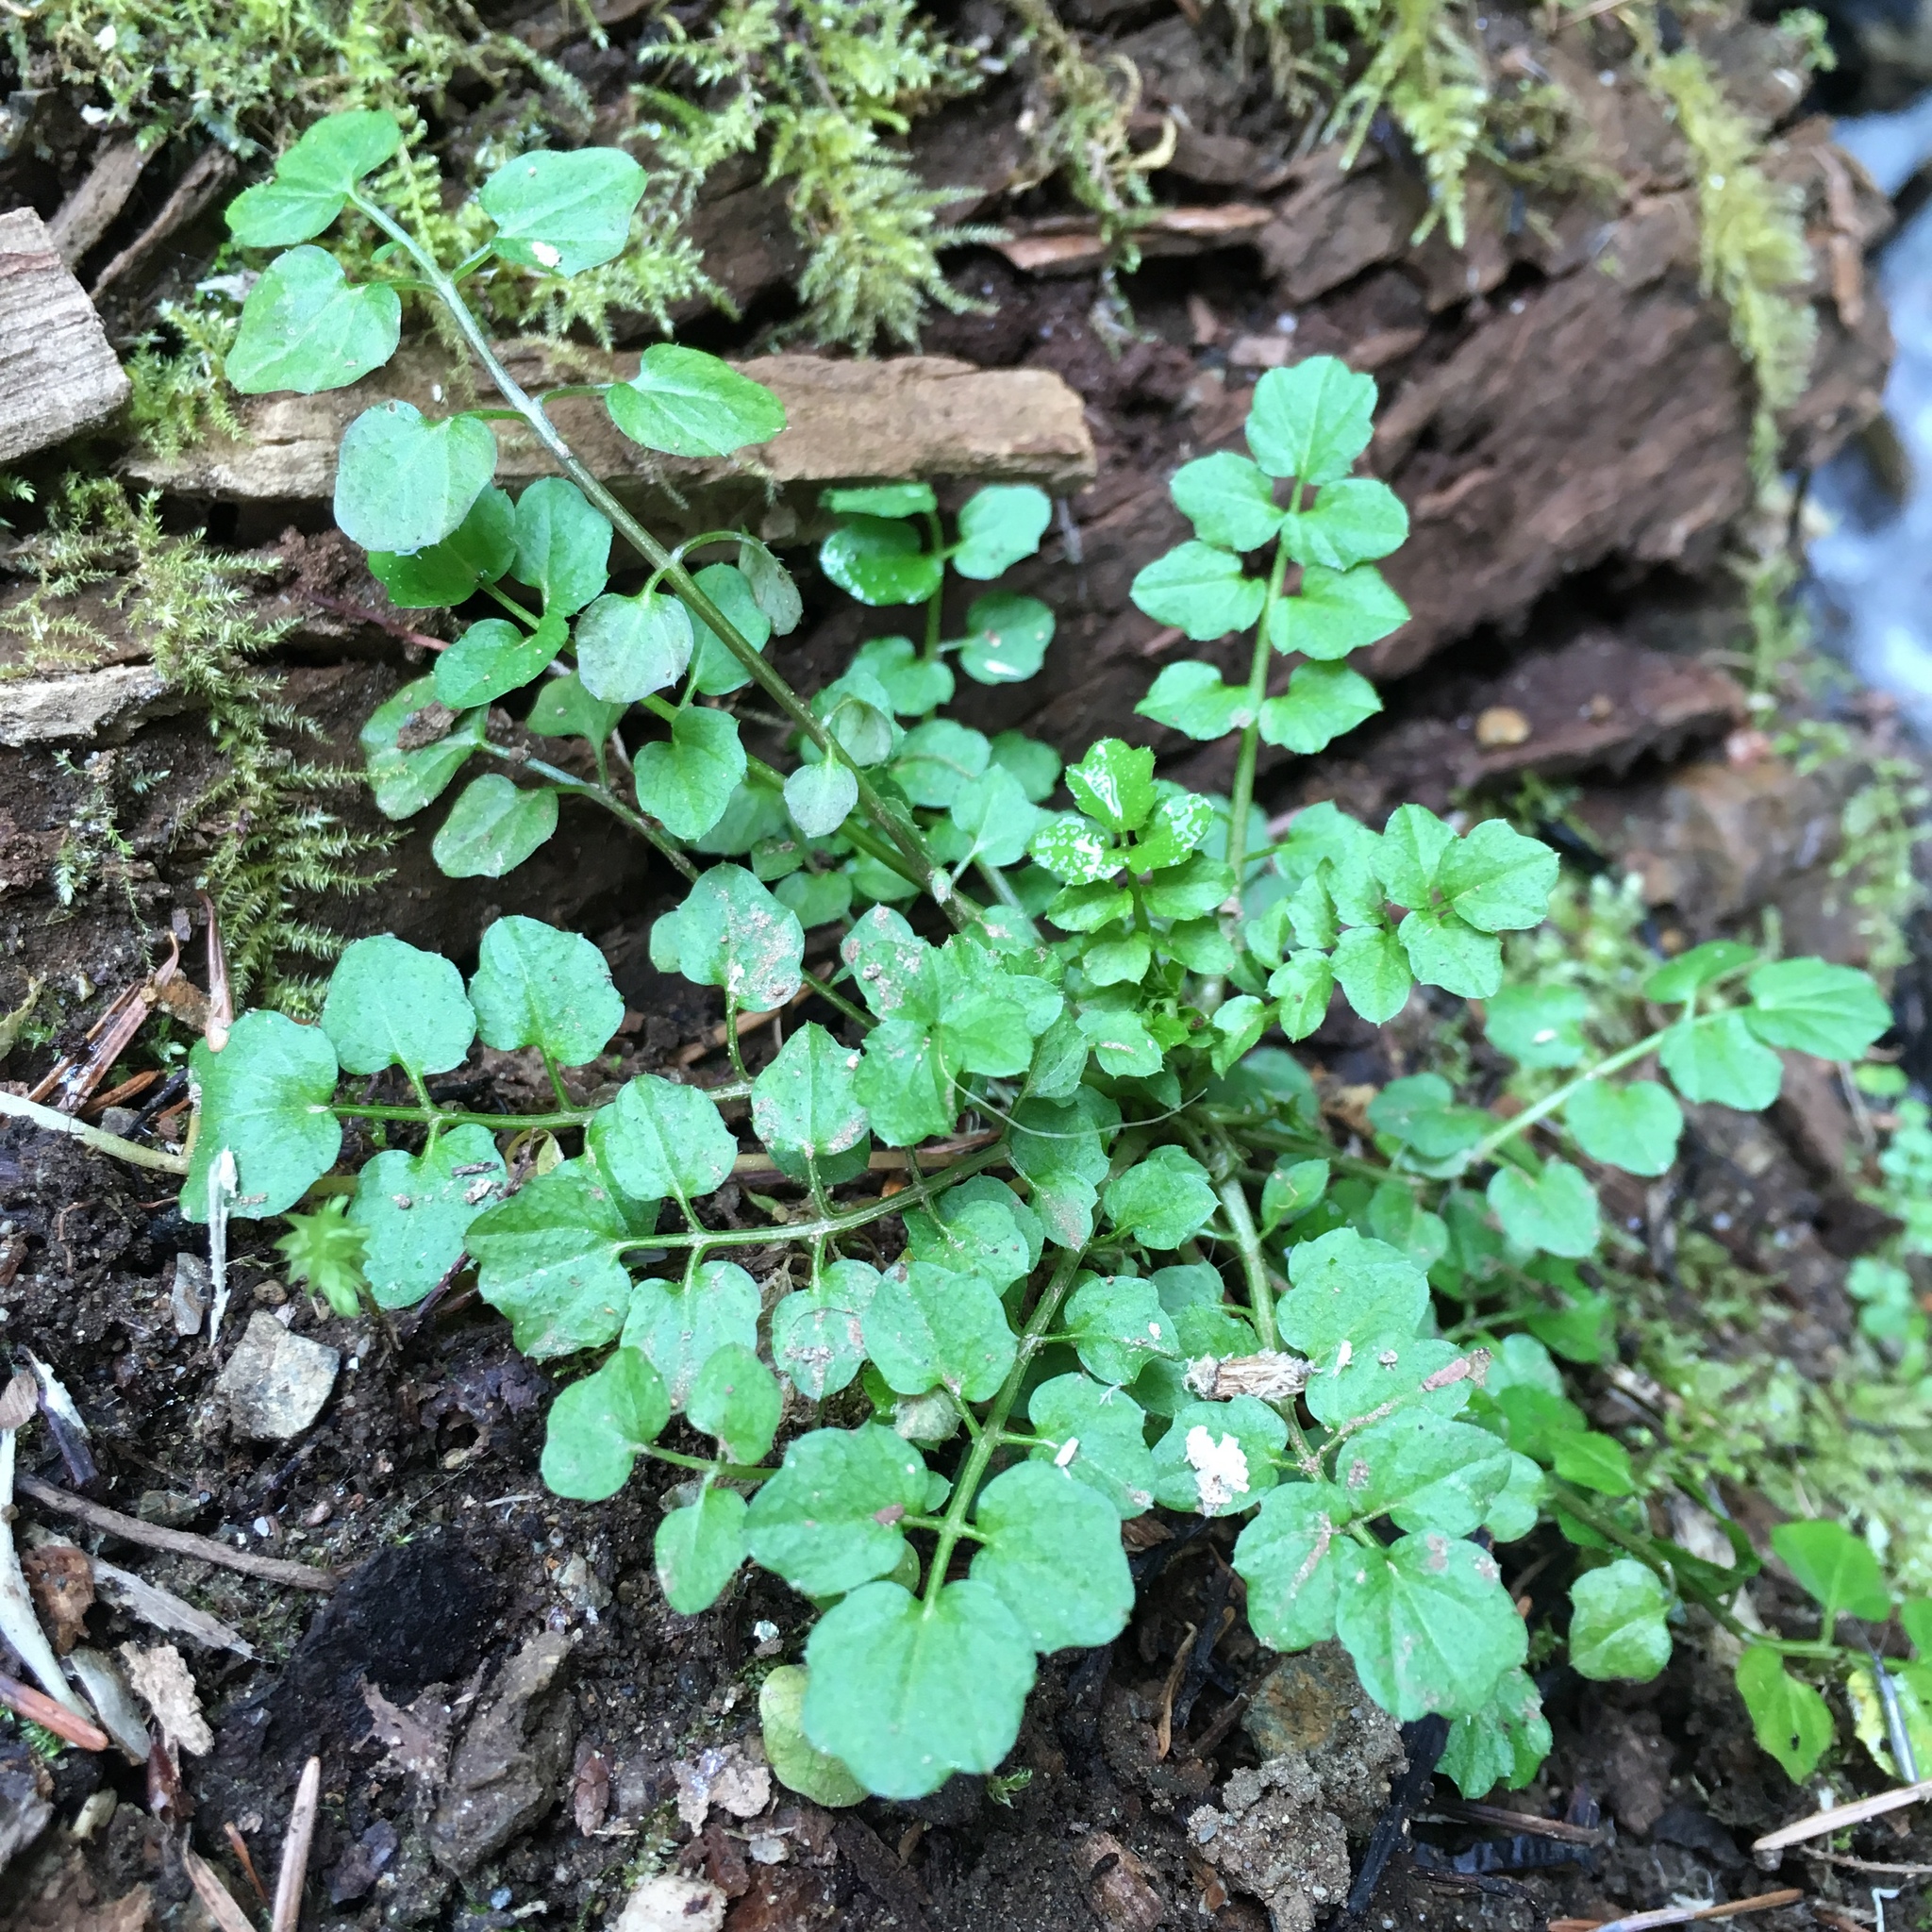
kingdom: Plantae
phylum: Tracheophyta
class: Magnoliopsida
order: Brassicales
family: Brassicaceae
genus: Cardamine
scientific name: Cardamine flexuosa
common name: Woodland bittercress
